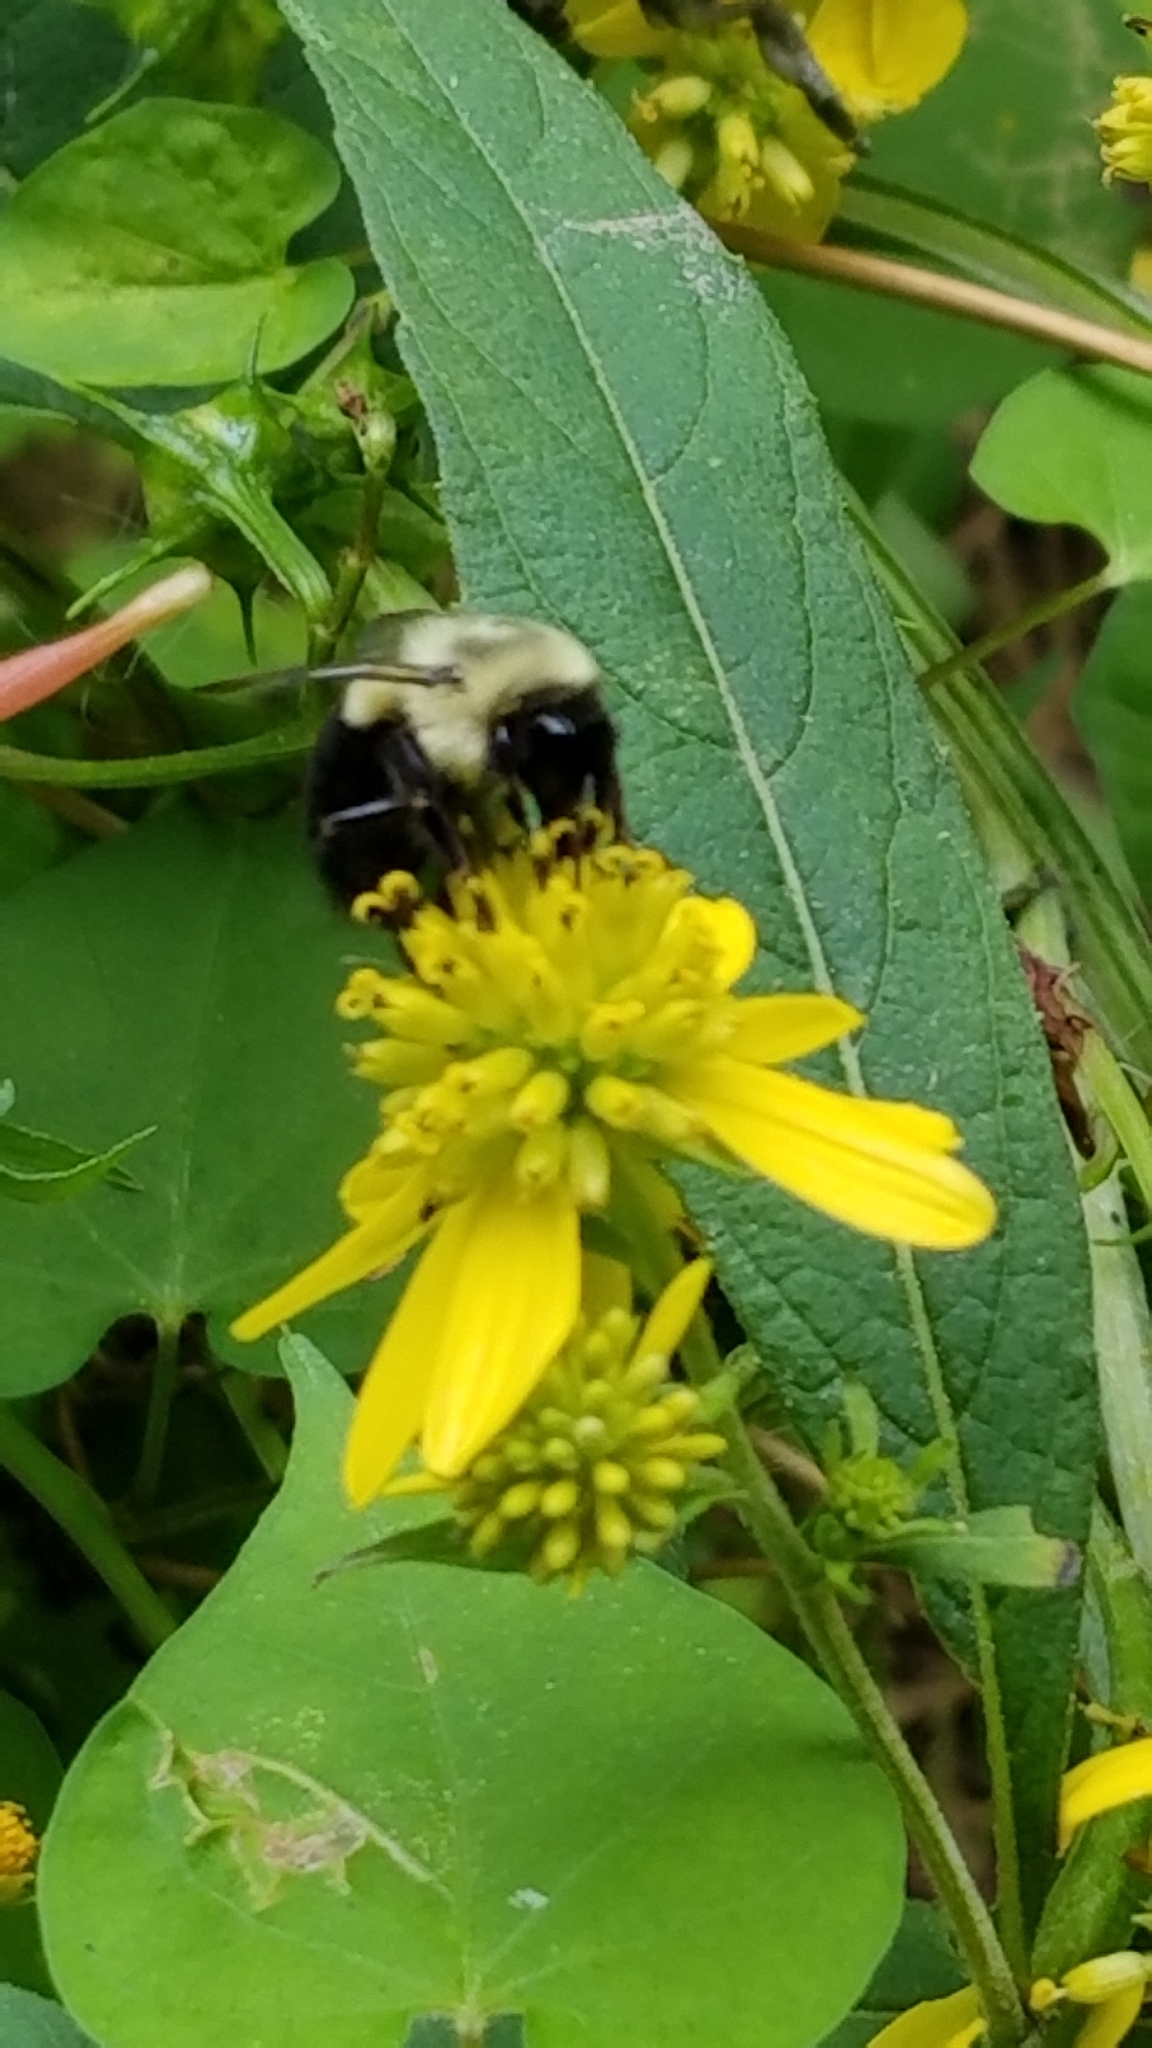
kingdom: Animalia
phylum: Arthropoda
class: Insecta
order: Hymenoptera
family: Apidae
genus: Bombus
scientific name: Bombus impatiens
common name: Common eastern bumble bee
